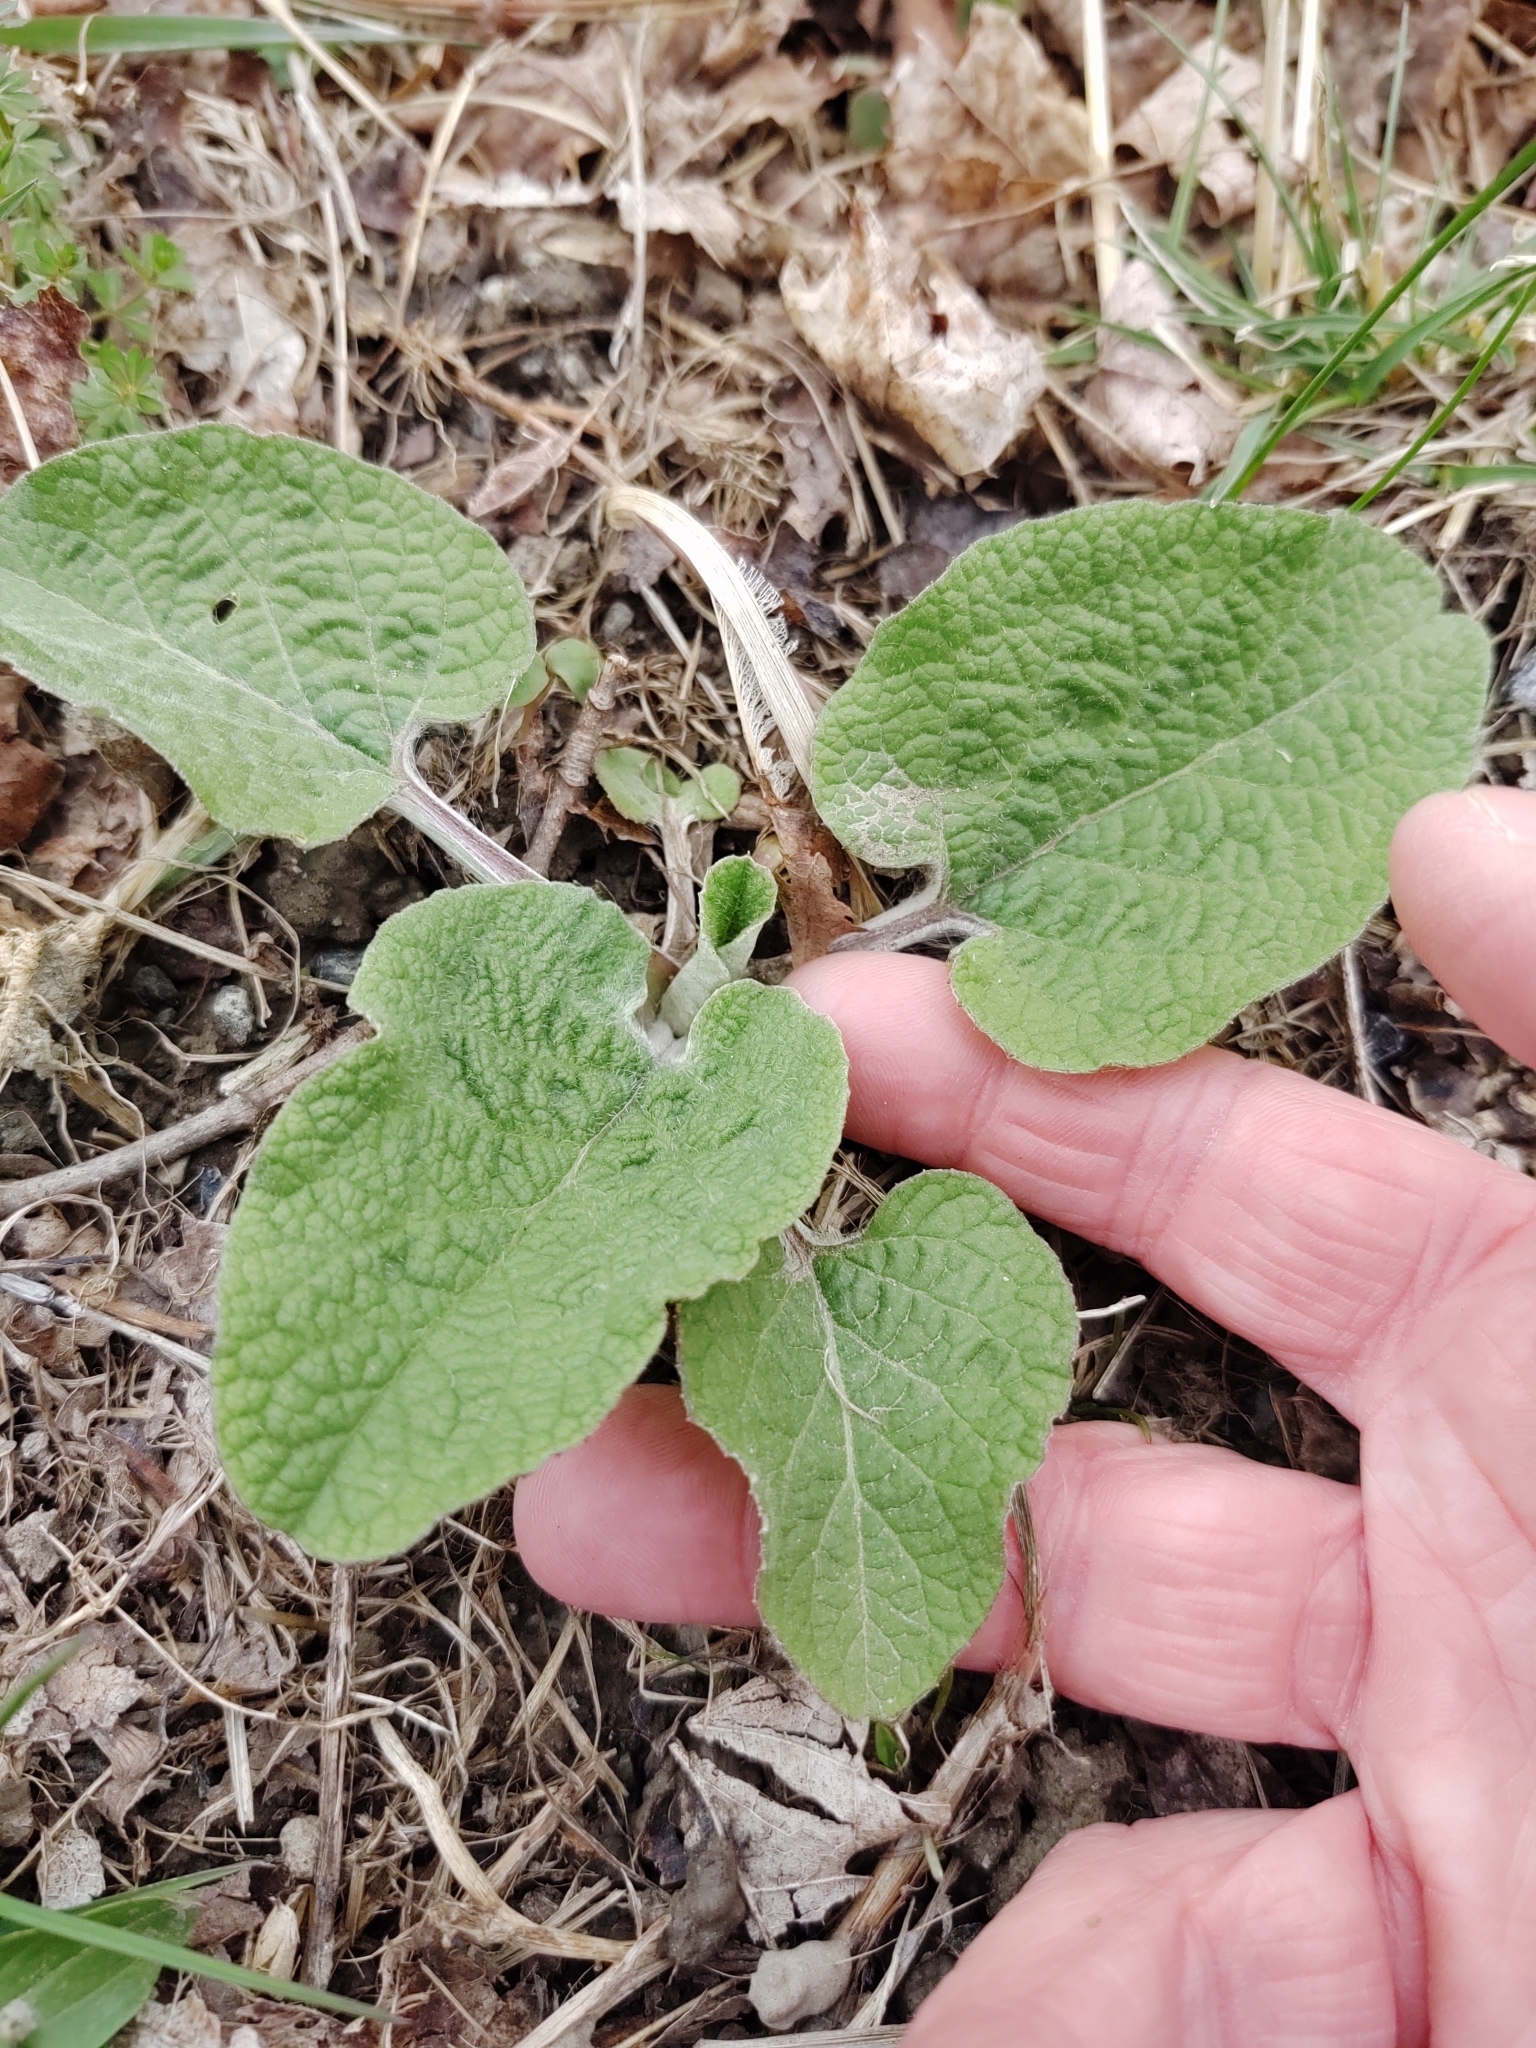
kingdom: Plantae
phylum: Tracheophyta
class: Magnoliopsida
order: Asterales
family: Asteraceae
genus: Arctium
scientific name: Arctium
